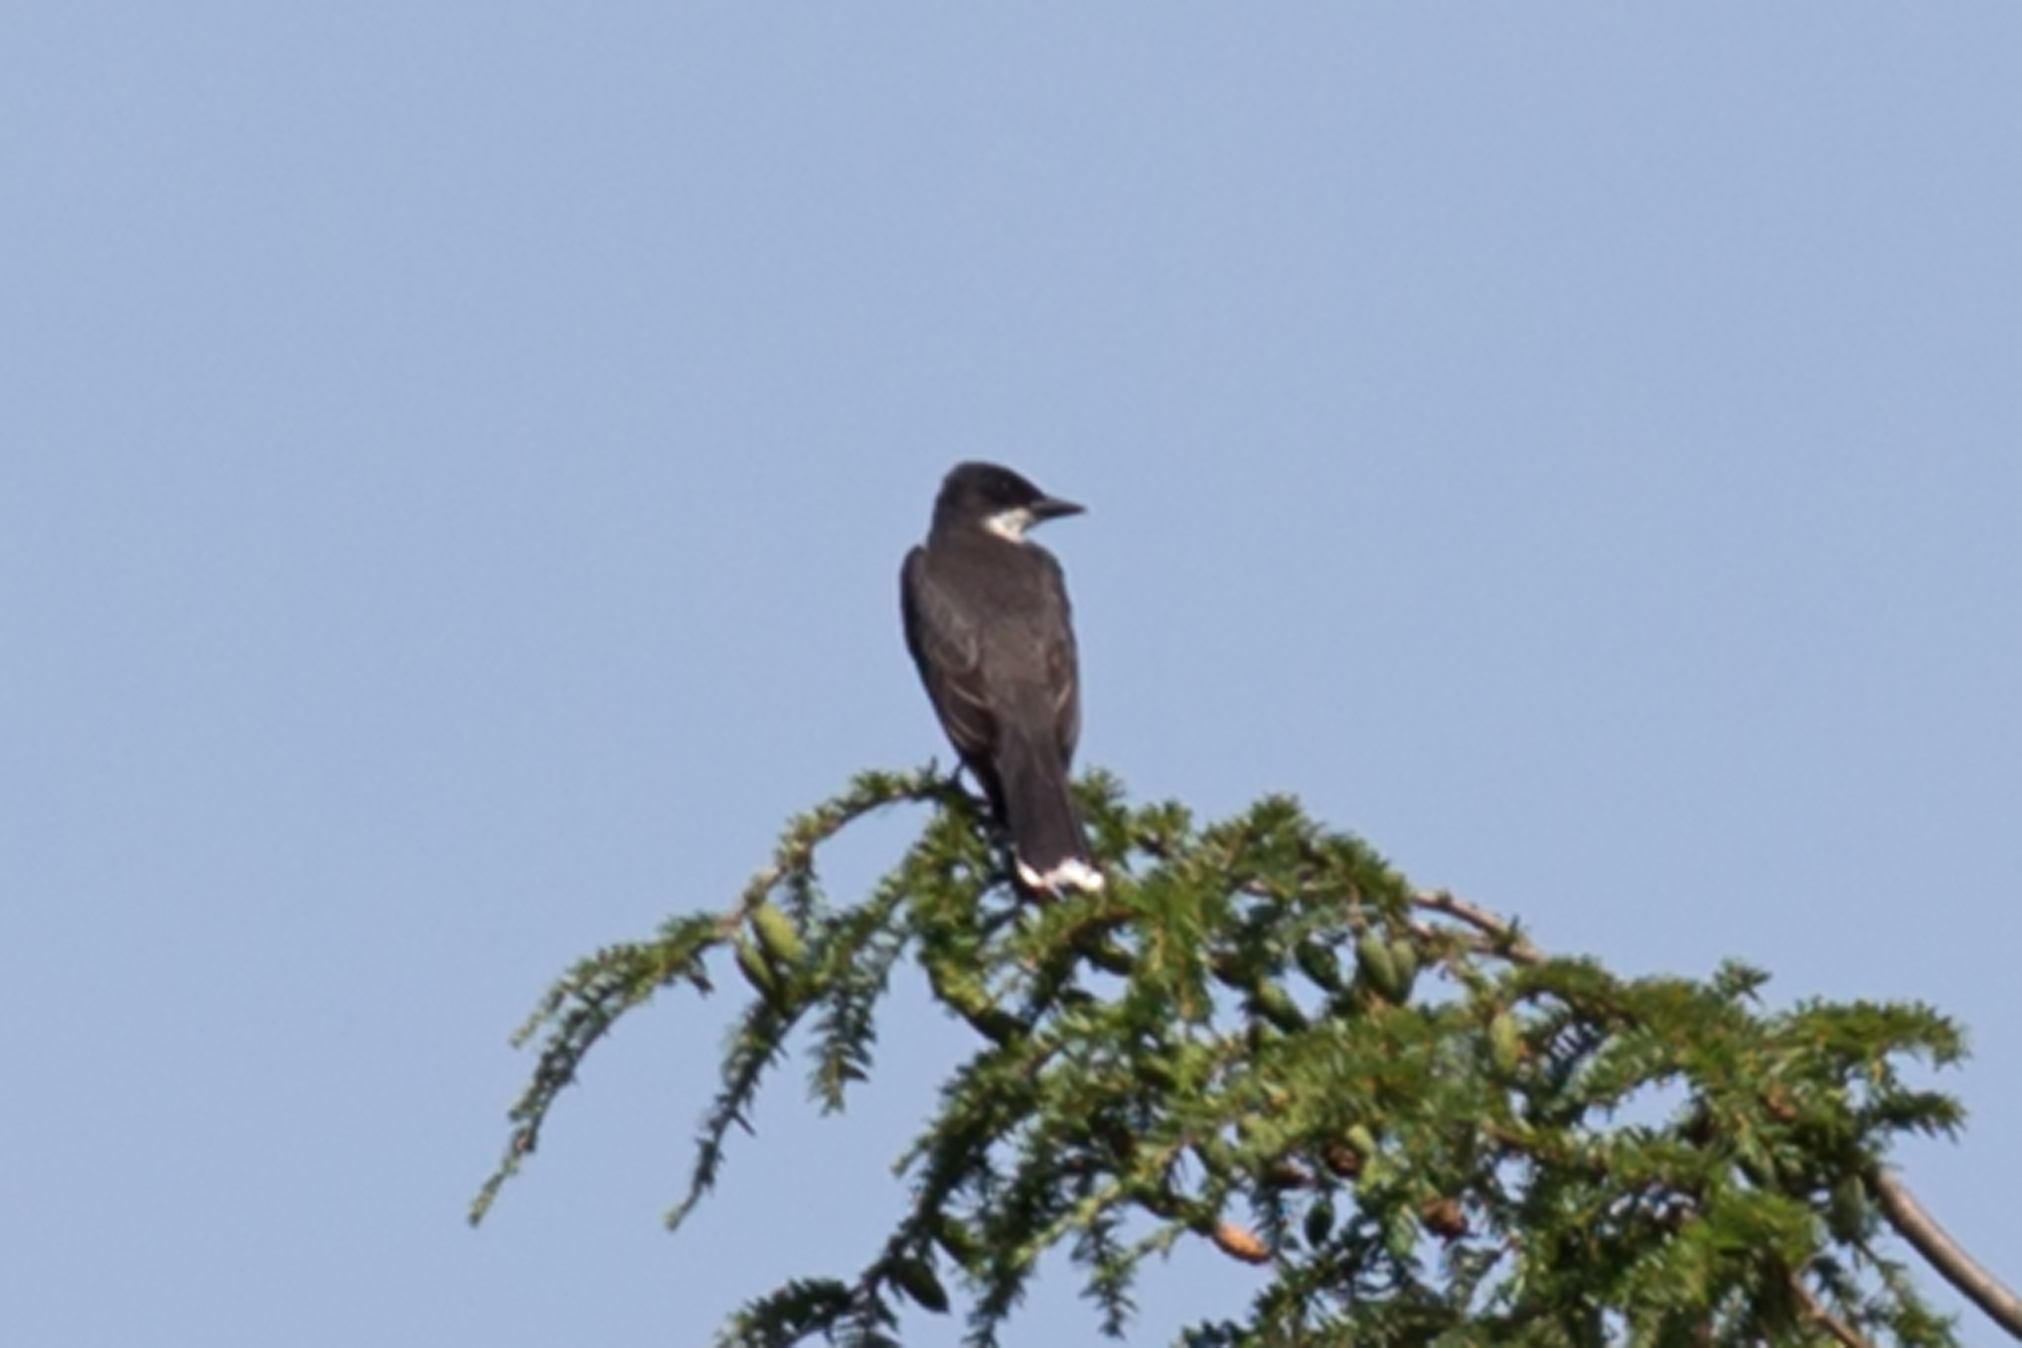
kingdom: Animalia
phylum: Chordata
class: Aves
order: Passeriformes
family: Tyrannidae
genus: Tyrannus
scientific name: Tyrannus tyrannus
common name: Eastern kingbird
